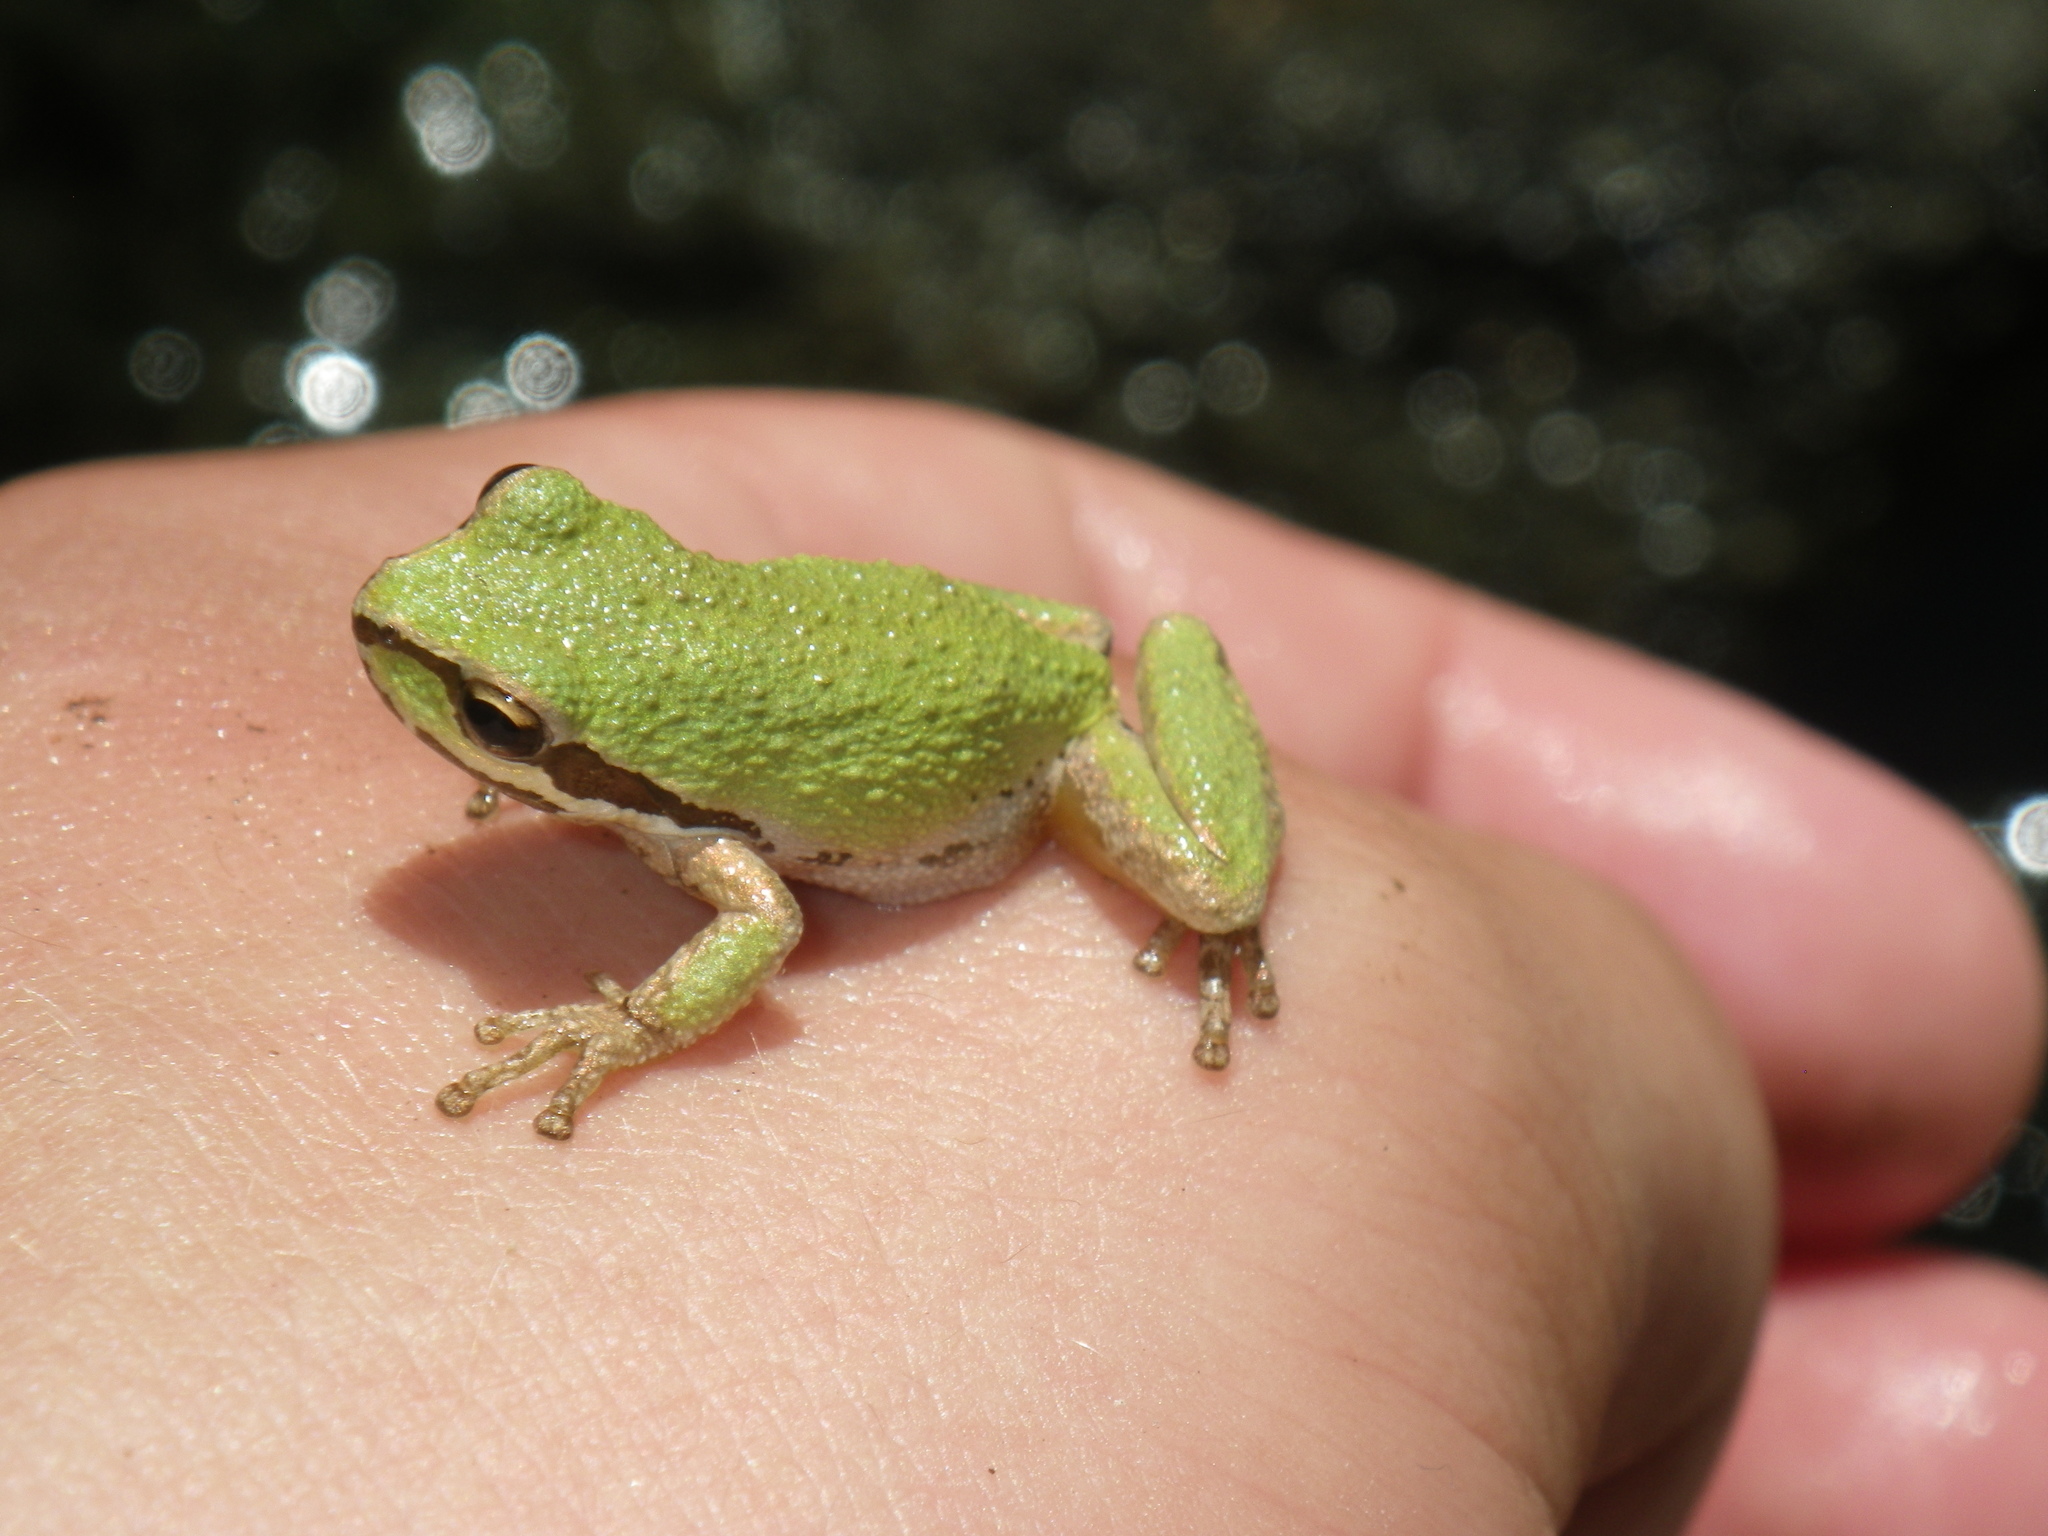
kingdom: Animalia
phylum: Chordata
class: Amphibia
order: Anura
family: Hylidae
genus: Pseudacris
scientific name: Pseudacris regilla
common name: Pacific chorus frog
